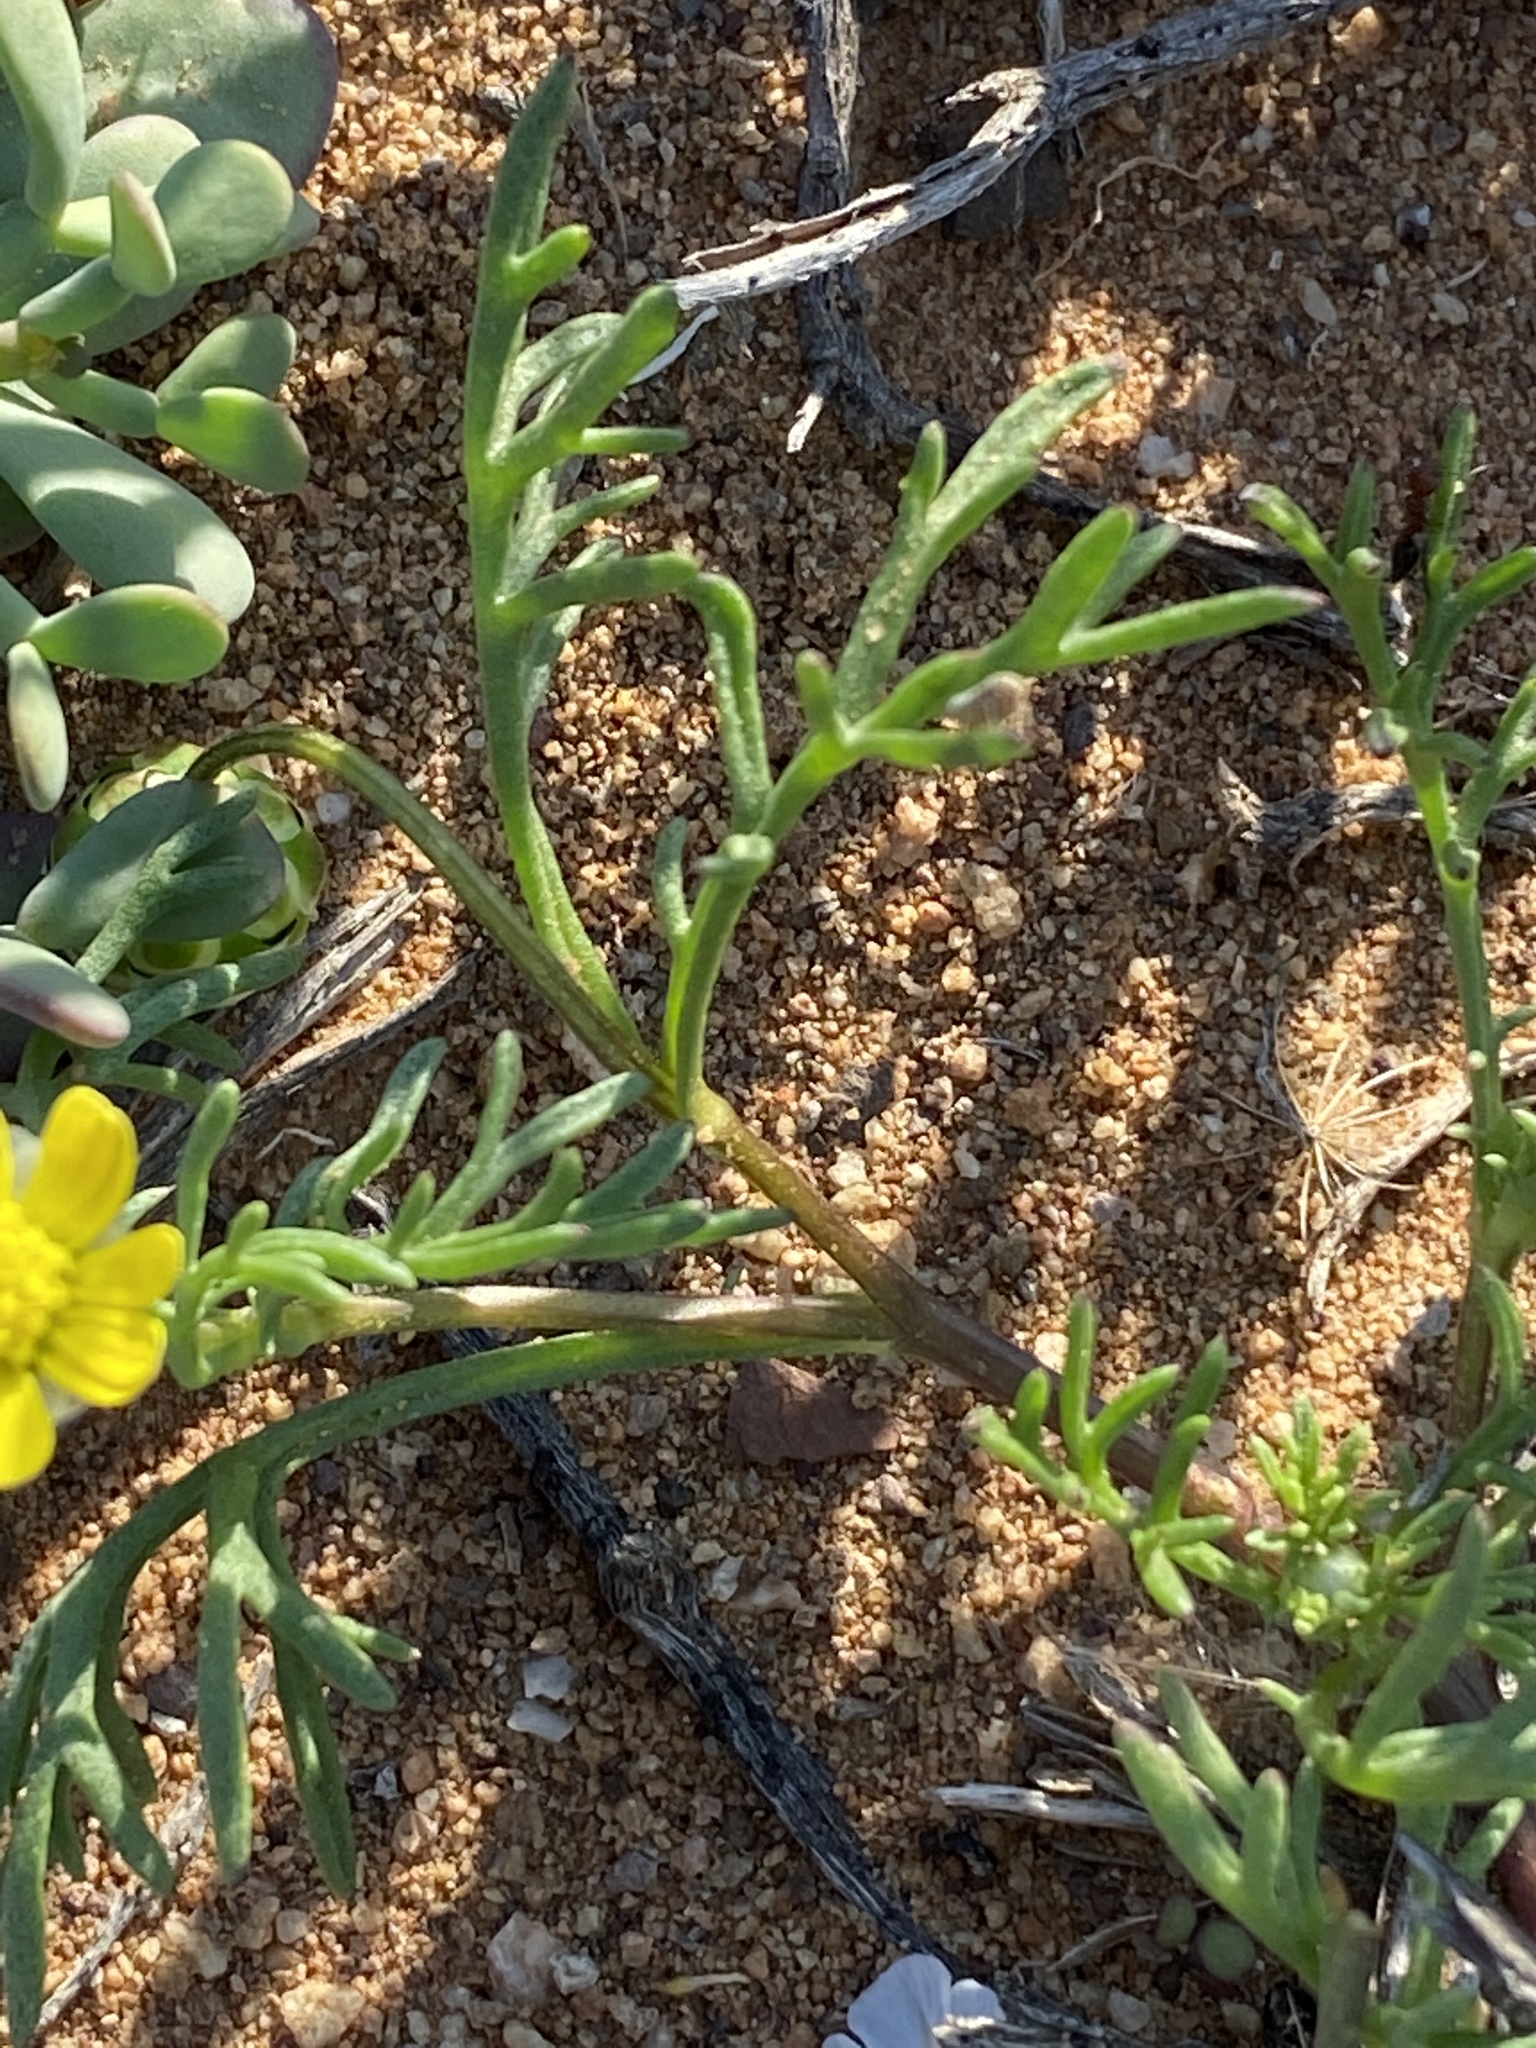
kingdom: Plantae
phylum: Tracheophyta
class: Magnoliopsida
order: Asterales
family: Asteraceae
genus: Ursinia
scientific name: Ursinia nana
